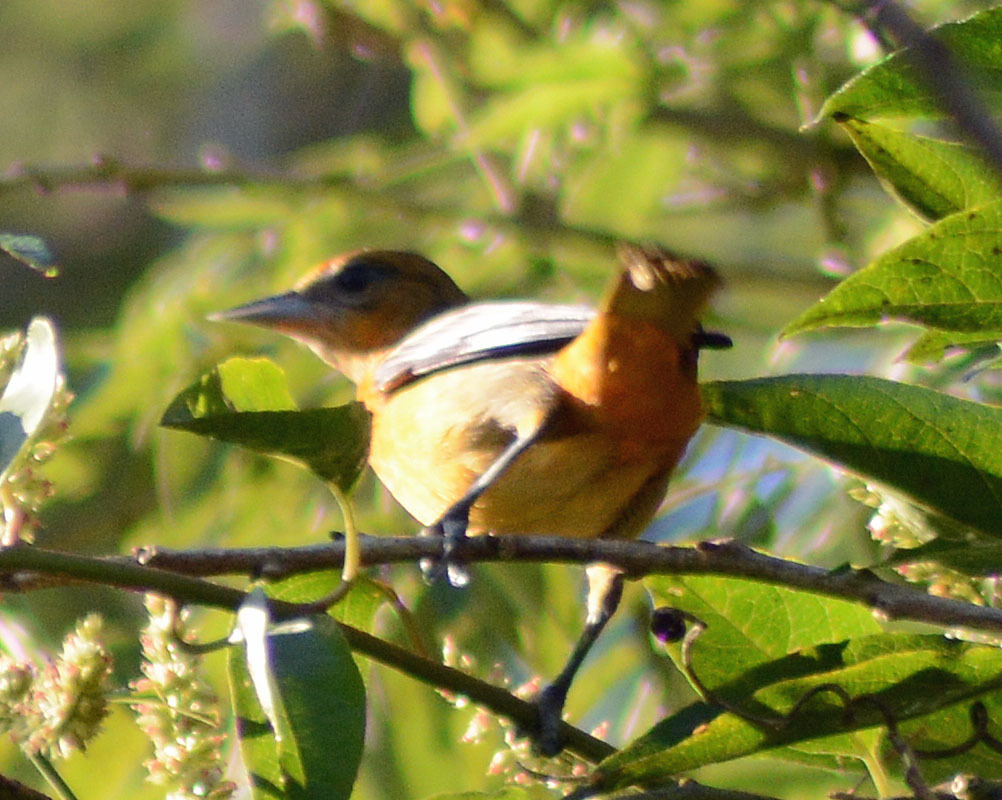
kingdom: Animalia
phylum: Chordata
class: Aves
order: Passeriformes
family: Icteridae
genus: Icterus
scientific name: Icterus galbula
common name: Baltimore oriole
